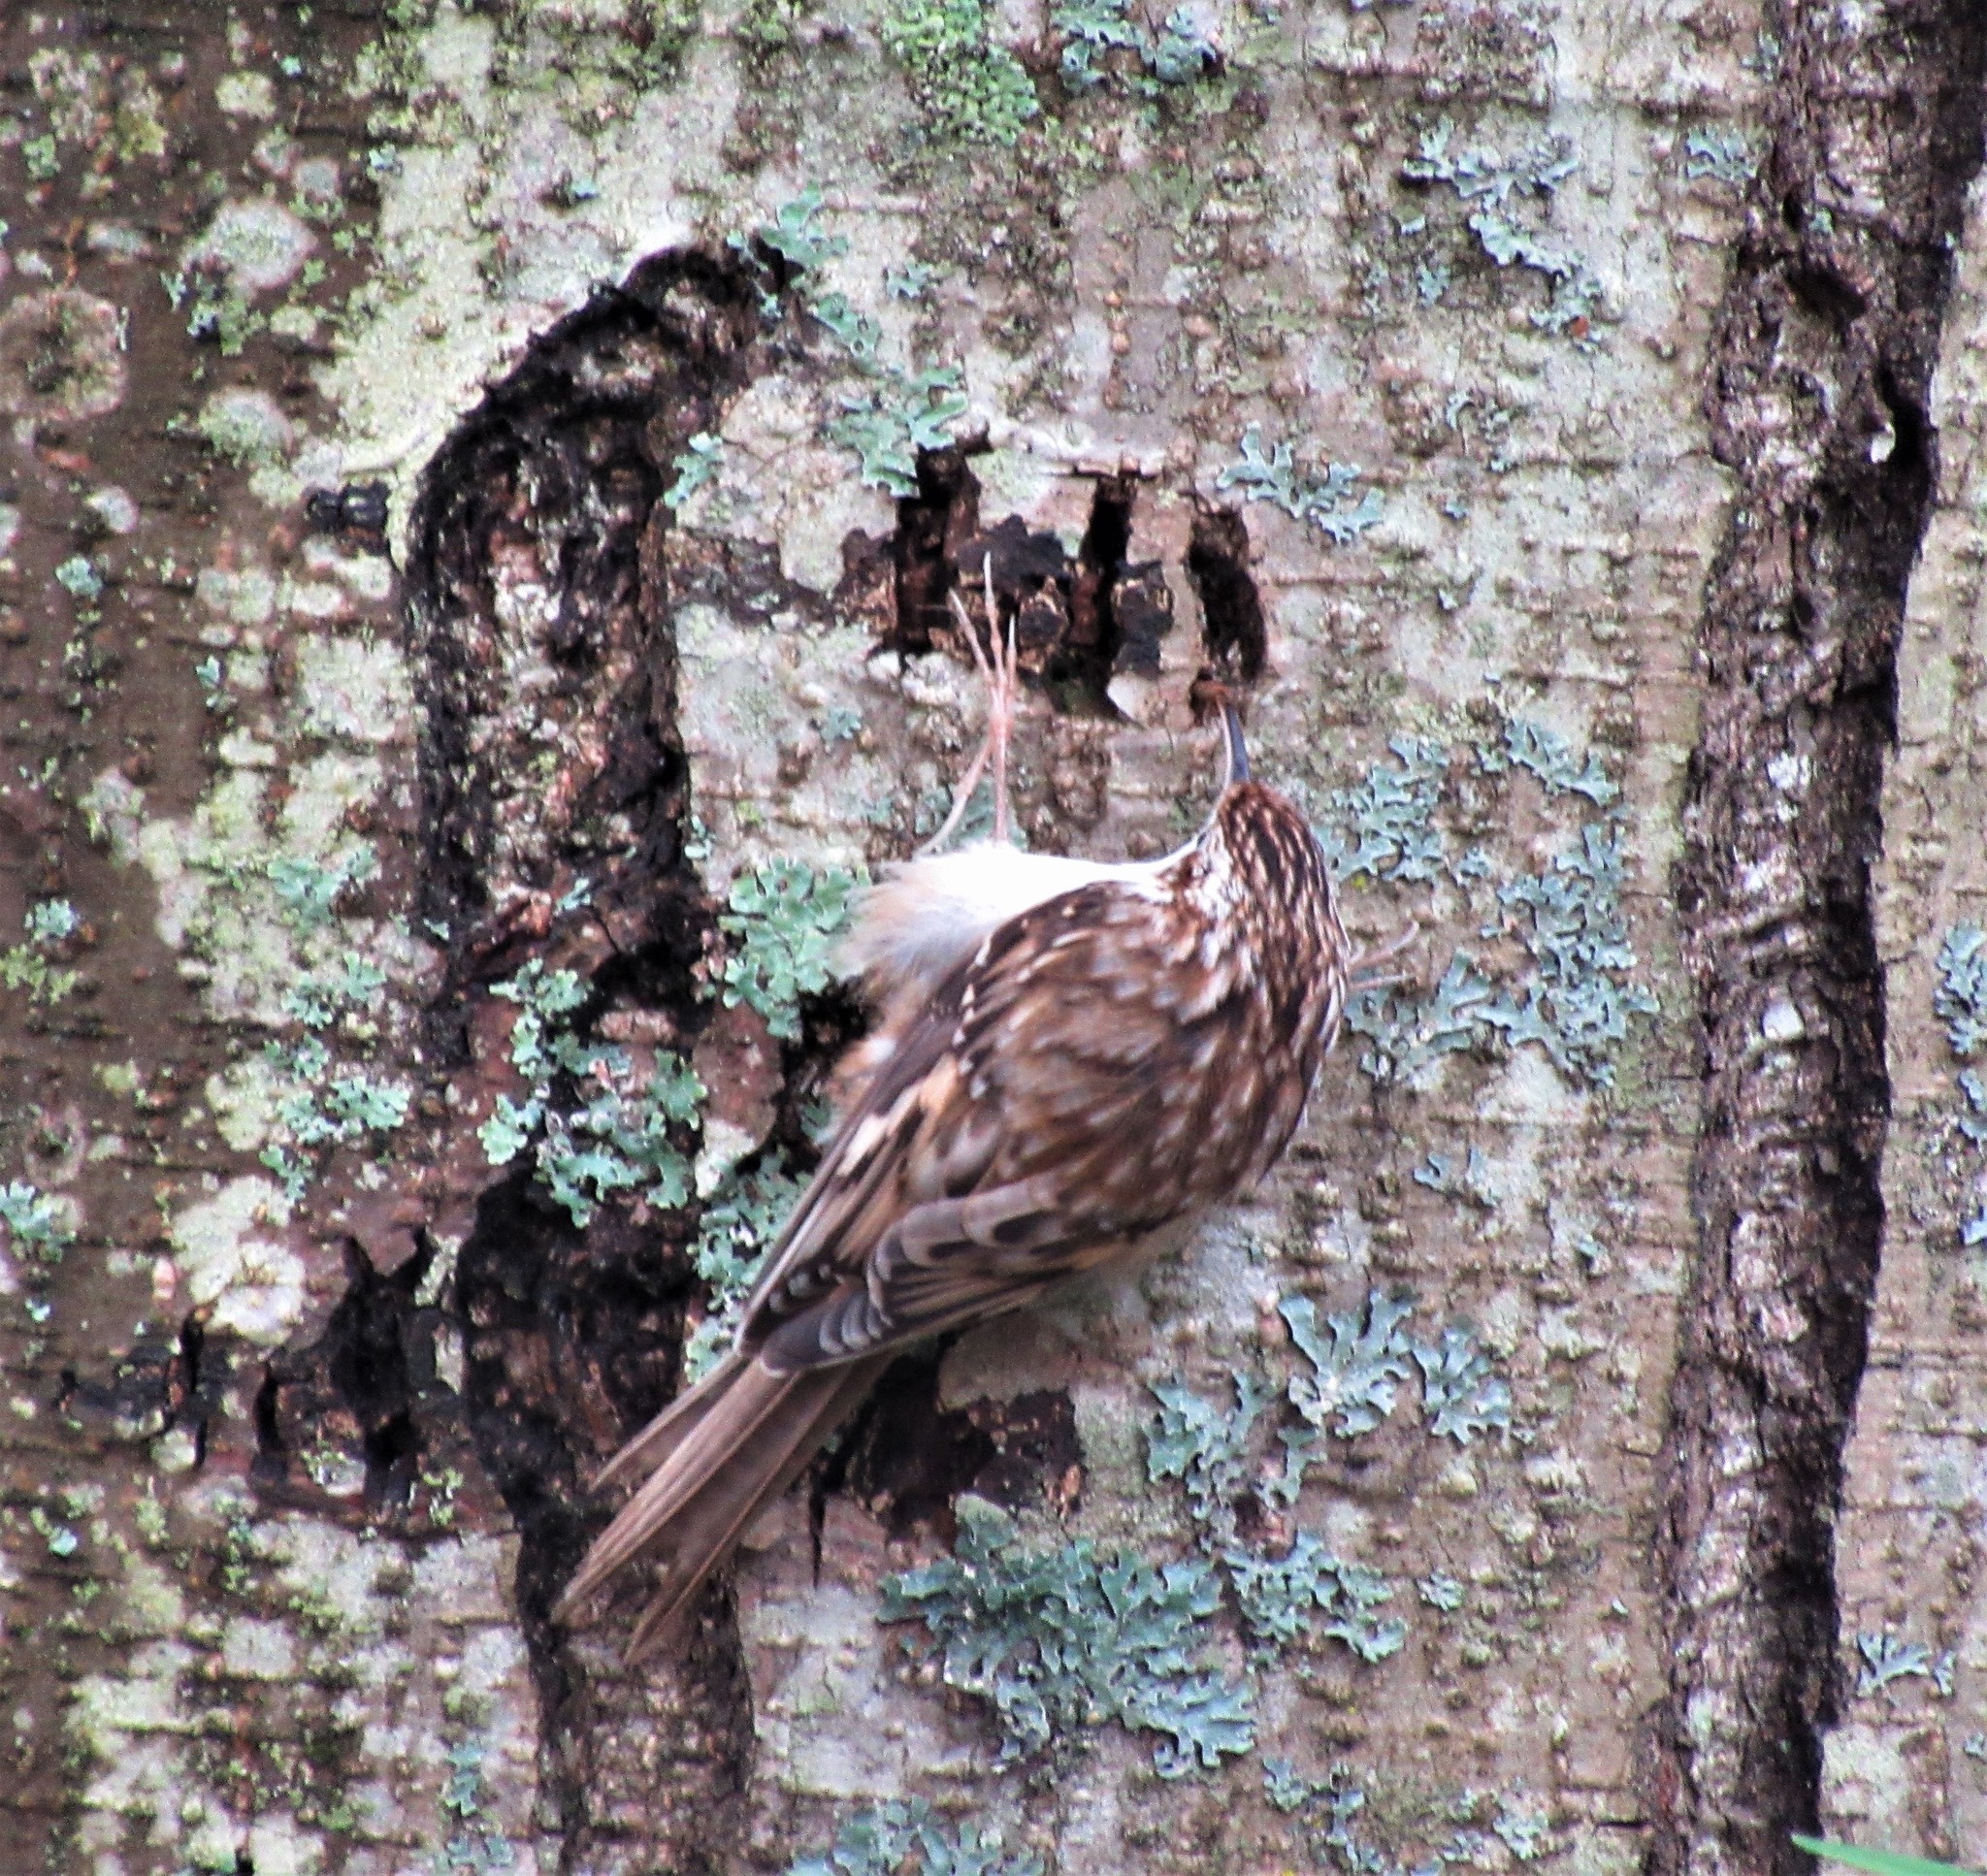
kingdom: Animalia
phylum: Chordata
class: Aves
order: Passeriformes
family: Certhiidae
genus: Certhia
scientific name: Certhia americana
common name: Brown creeper
